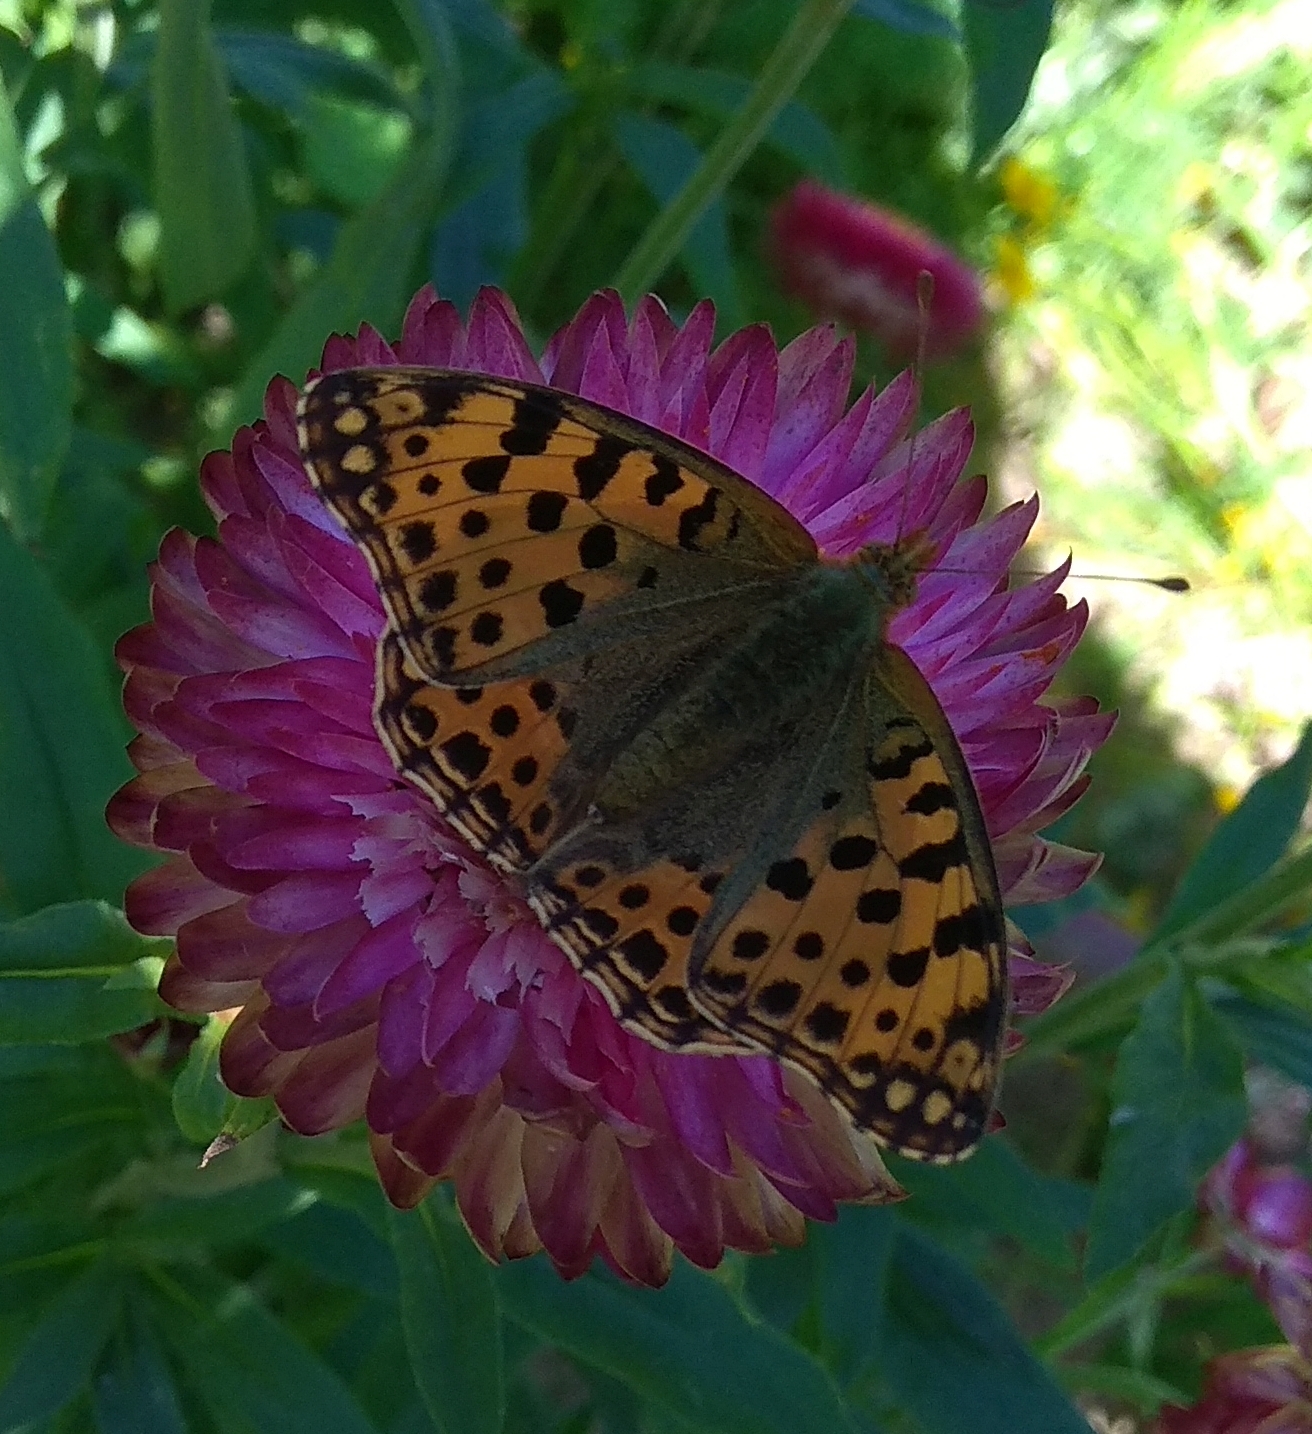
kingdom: Animalia
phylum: Arthropoda
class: Insecta
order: Lepidoptera
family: Nymphalidae
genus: Issoria
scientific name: Issoria lathonia
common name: Queen of spain fritillary
